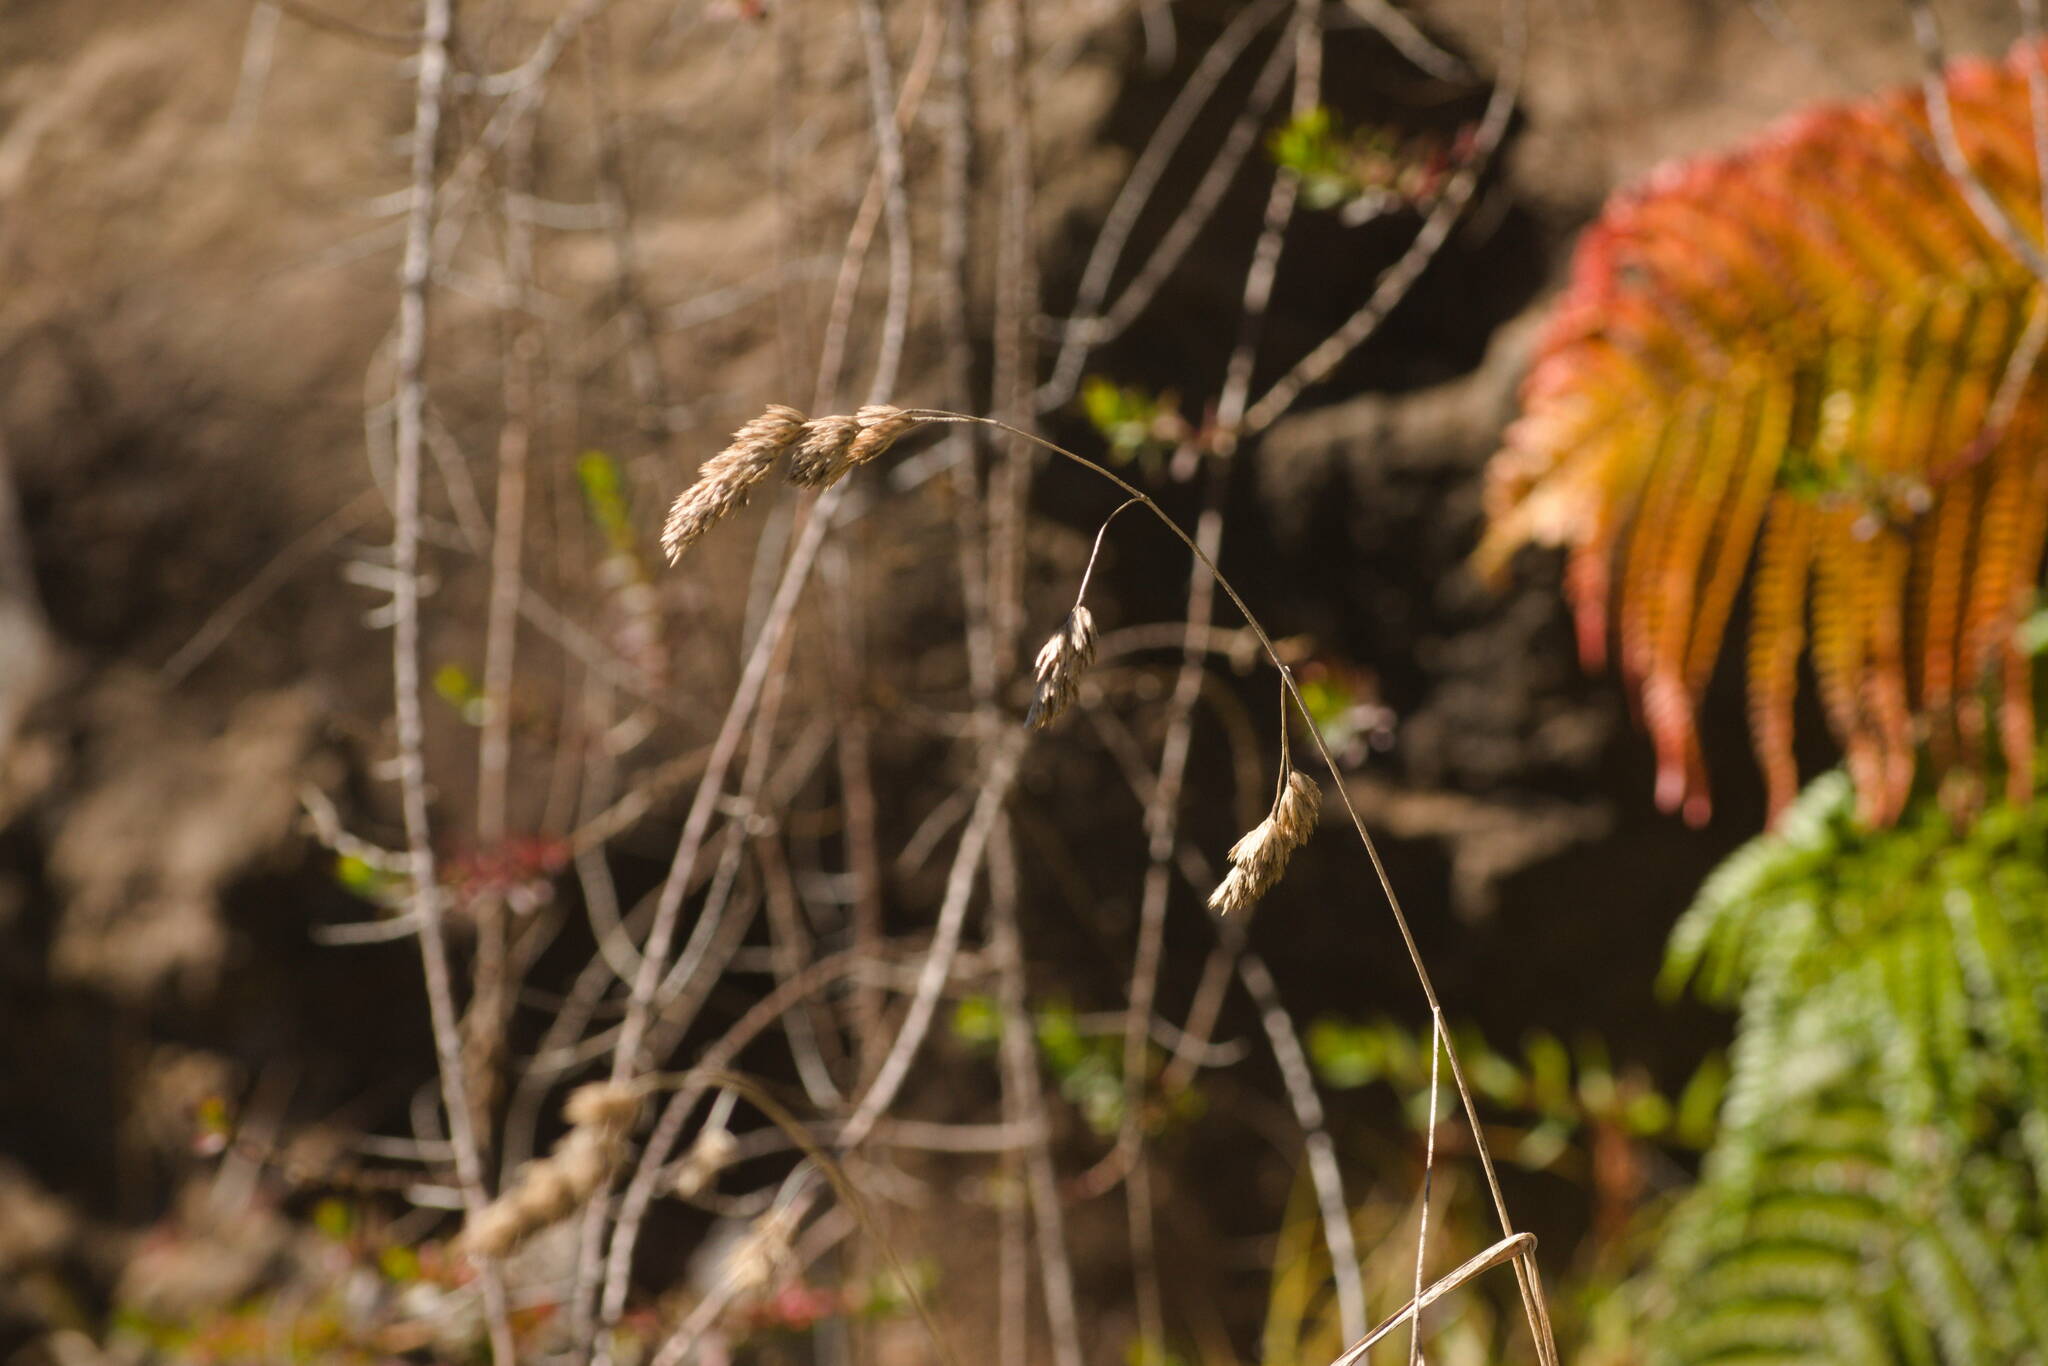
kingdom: Plantae
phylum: Tracheophyta
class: Liliopsida
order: Poales
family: Poaceae
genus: Dactylis
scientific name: Dactylis glomerata
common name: Orchardgrass
